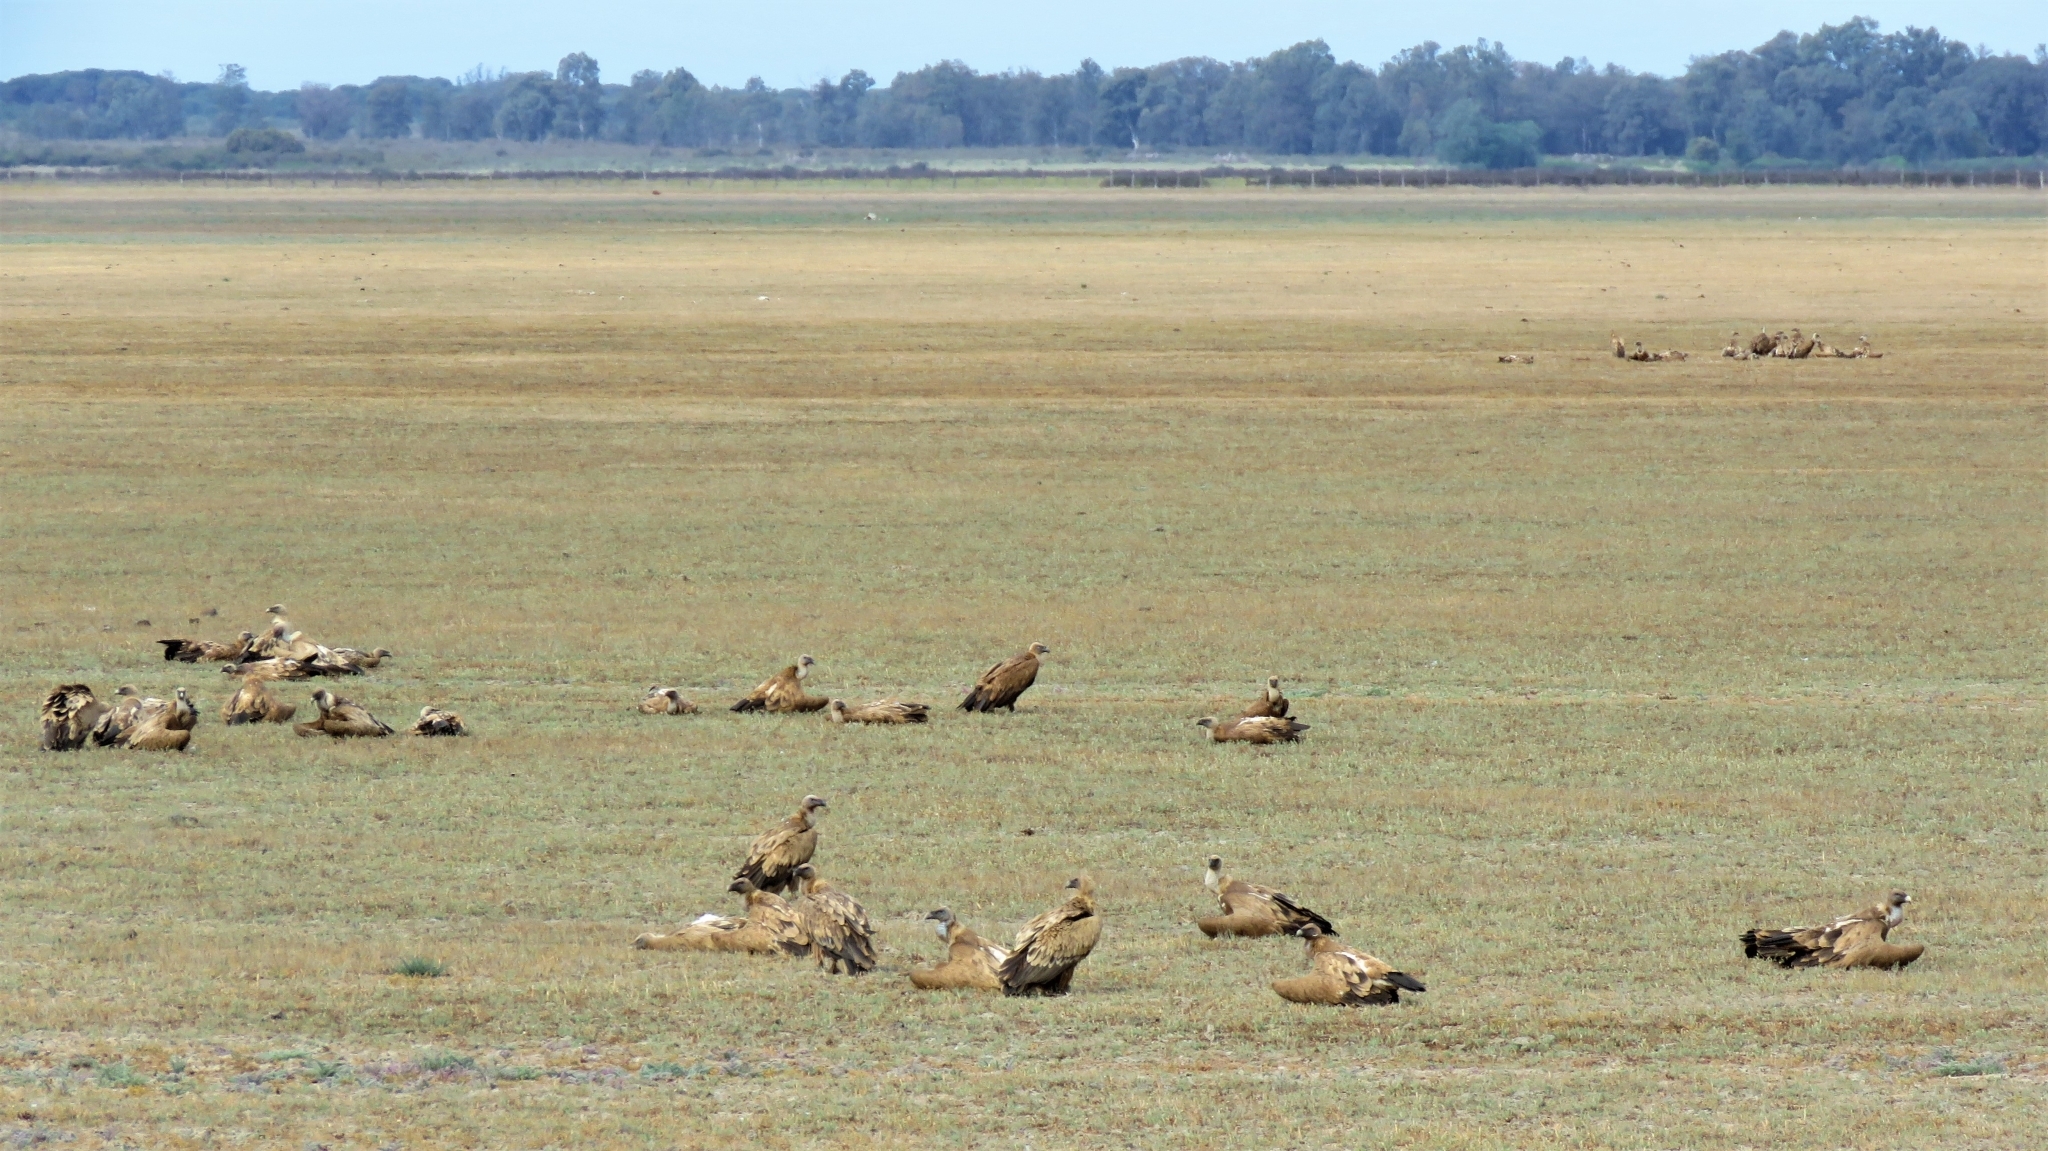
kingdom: Animalia
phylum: Chordata
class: Aves
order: Accipitriformes
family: Accipitridae
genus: Gyps
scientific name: Gyps fulvus
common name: Griffon vulture
